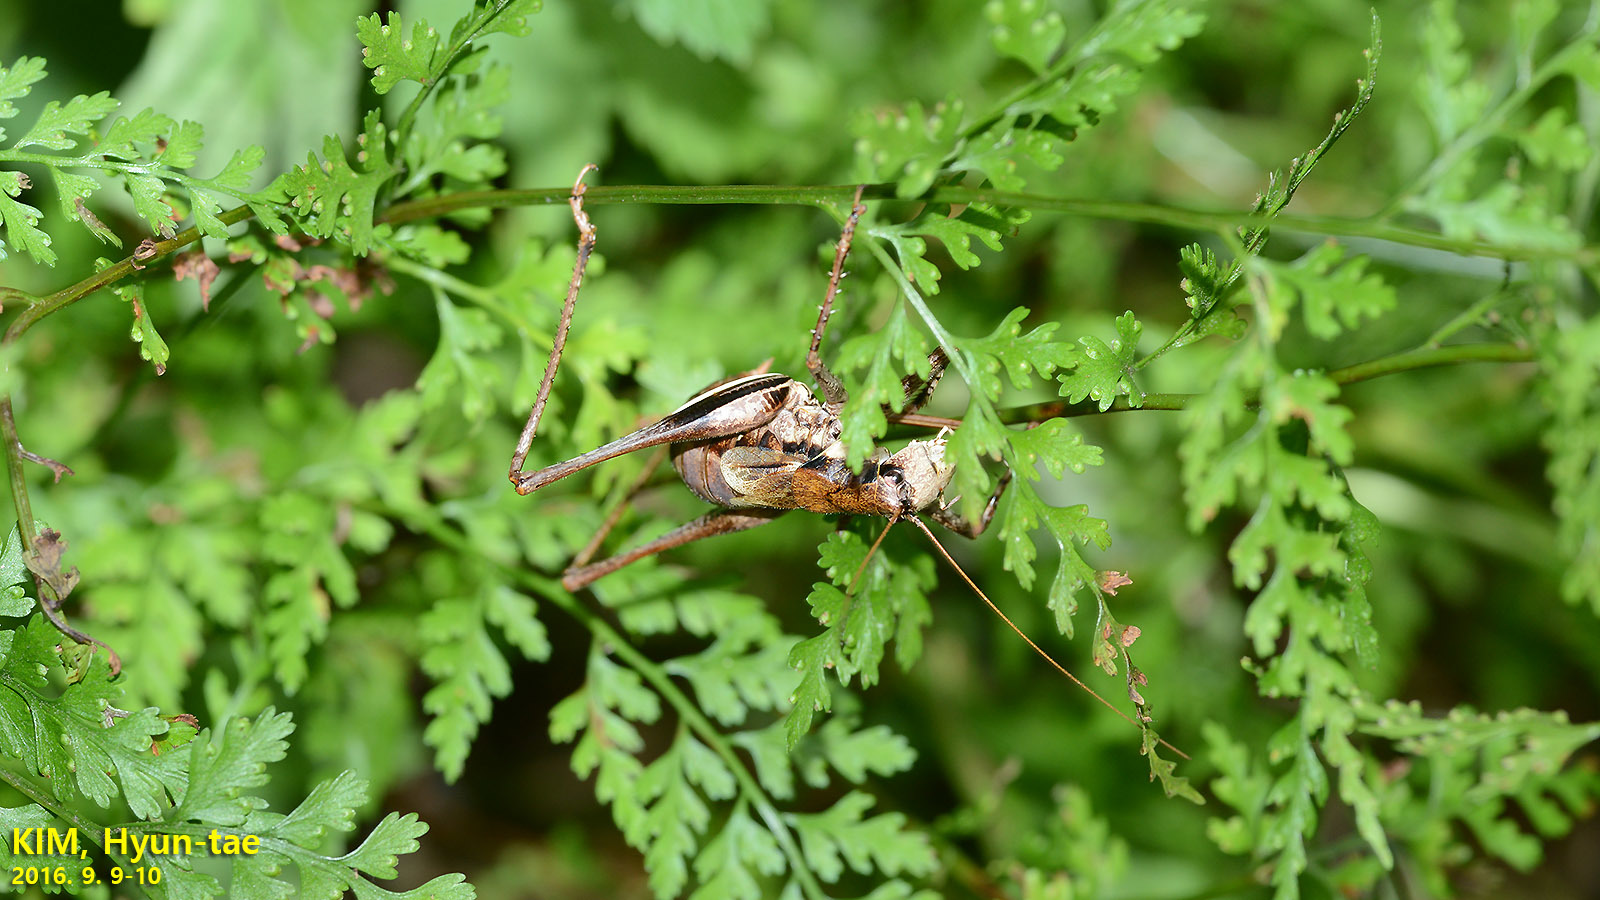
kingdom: Animalia
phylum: Arthropoda
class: Insecta
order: Orthoptera
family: Tettigoniidae
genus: Paratlanticus
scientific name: Paratlanticus ussuriensis
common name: Ussur brown katydid
